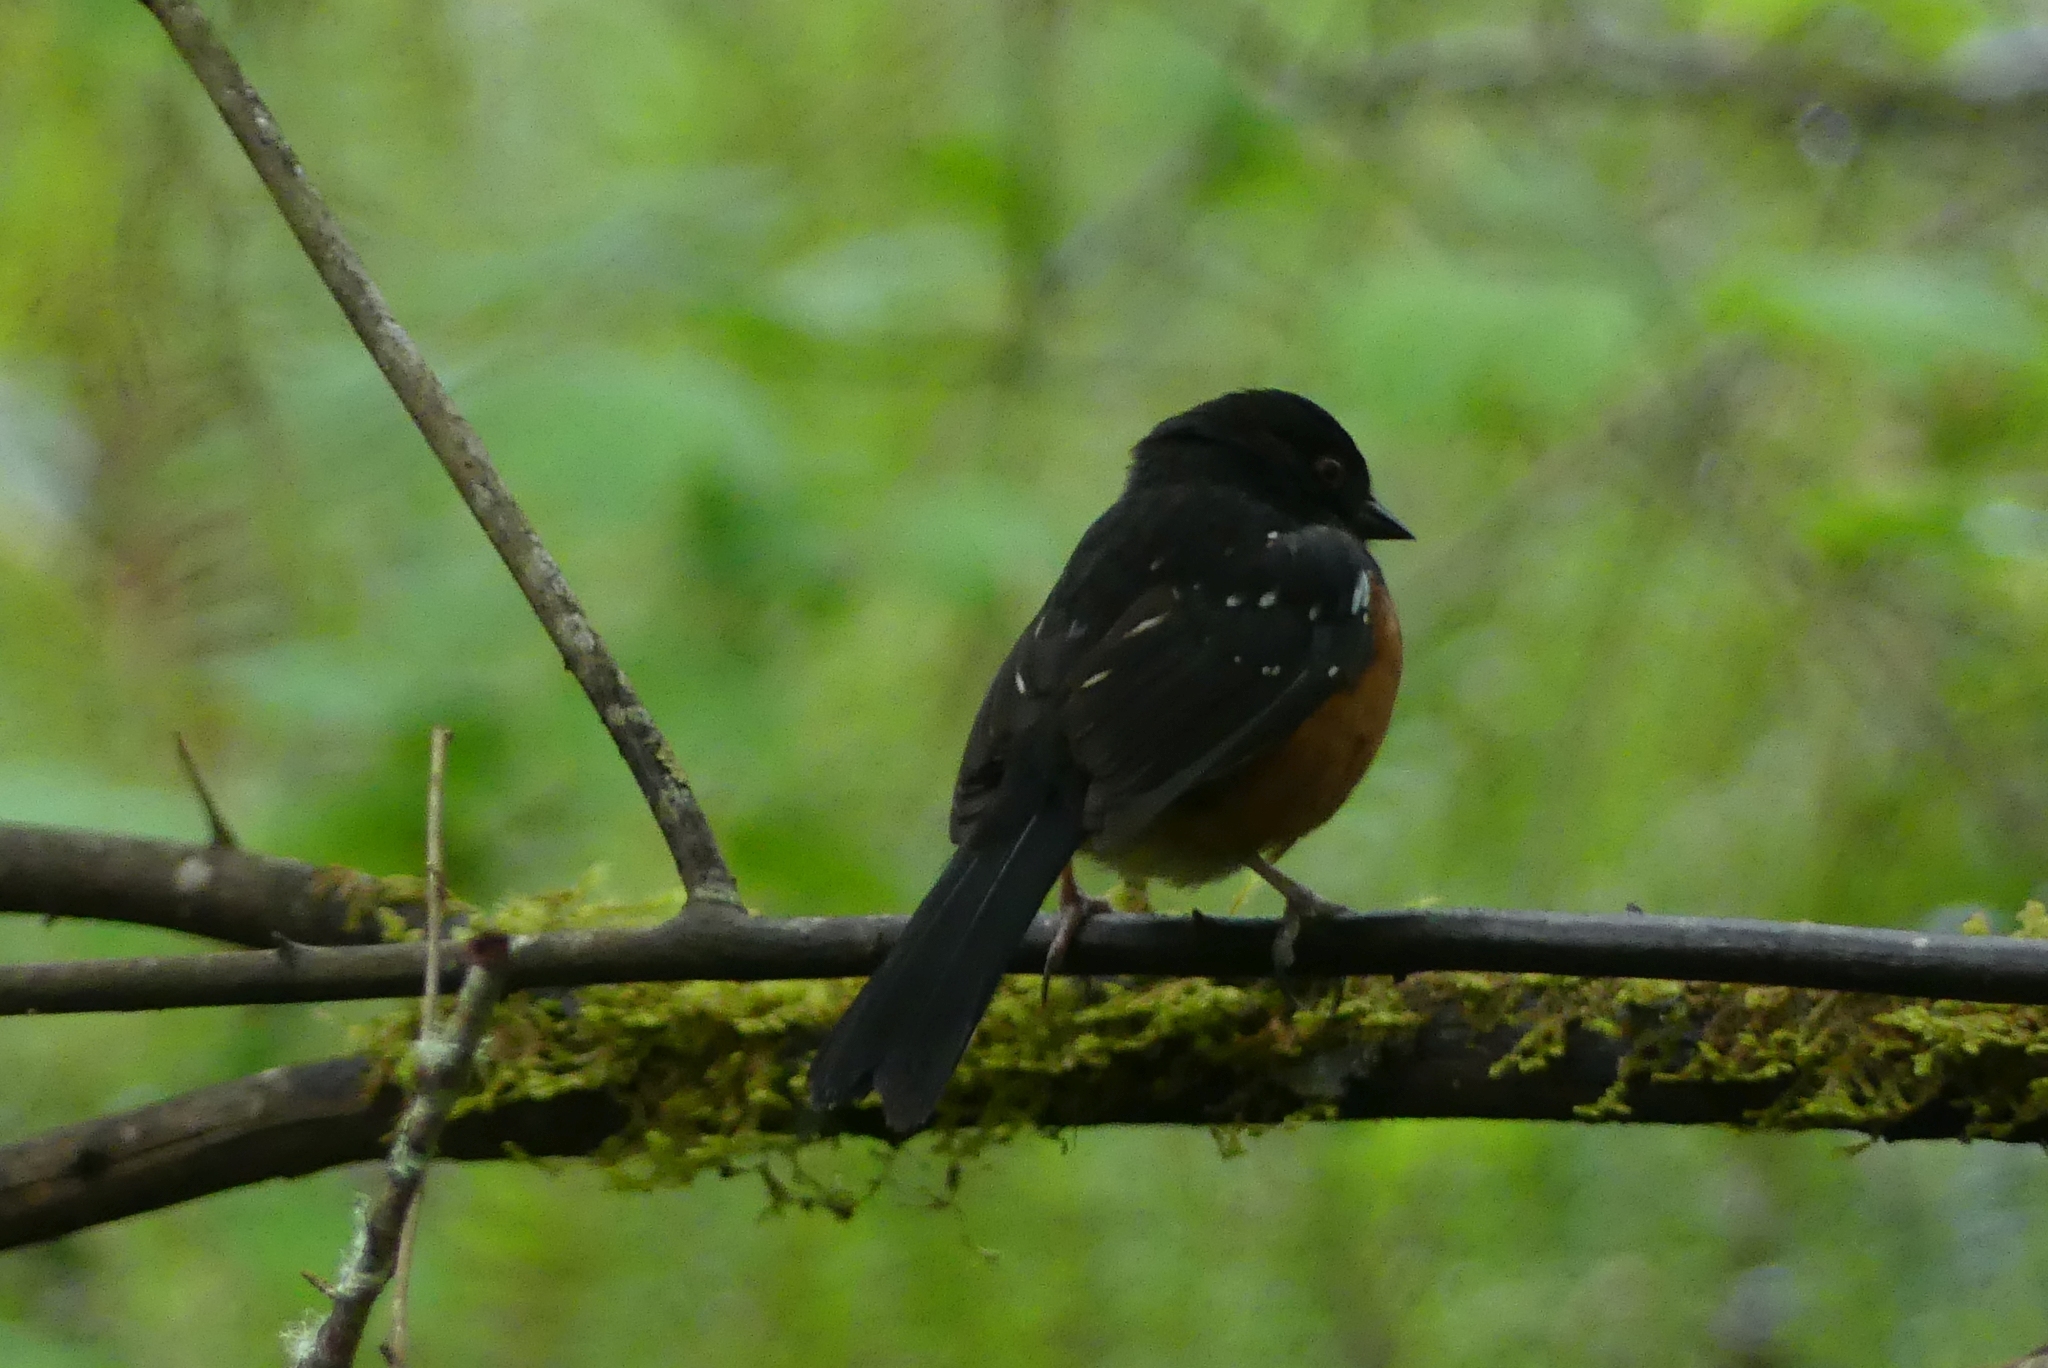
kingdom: Animalia
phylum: Chordata
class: Aves
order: Passeriformes
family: Passerellidae
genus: Pipilo
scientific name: Pipilo maculatus
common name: Spotted towhee
